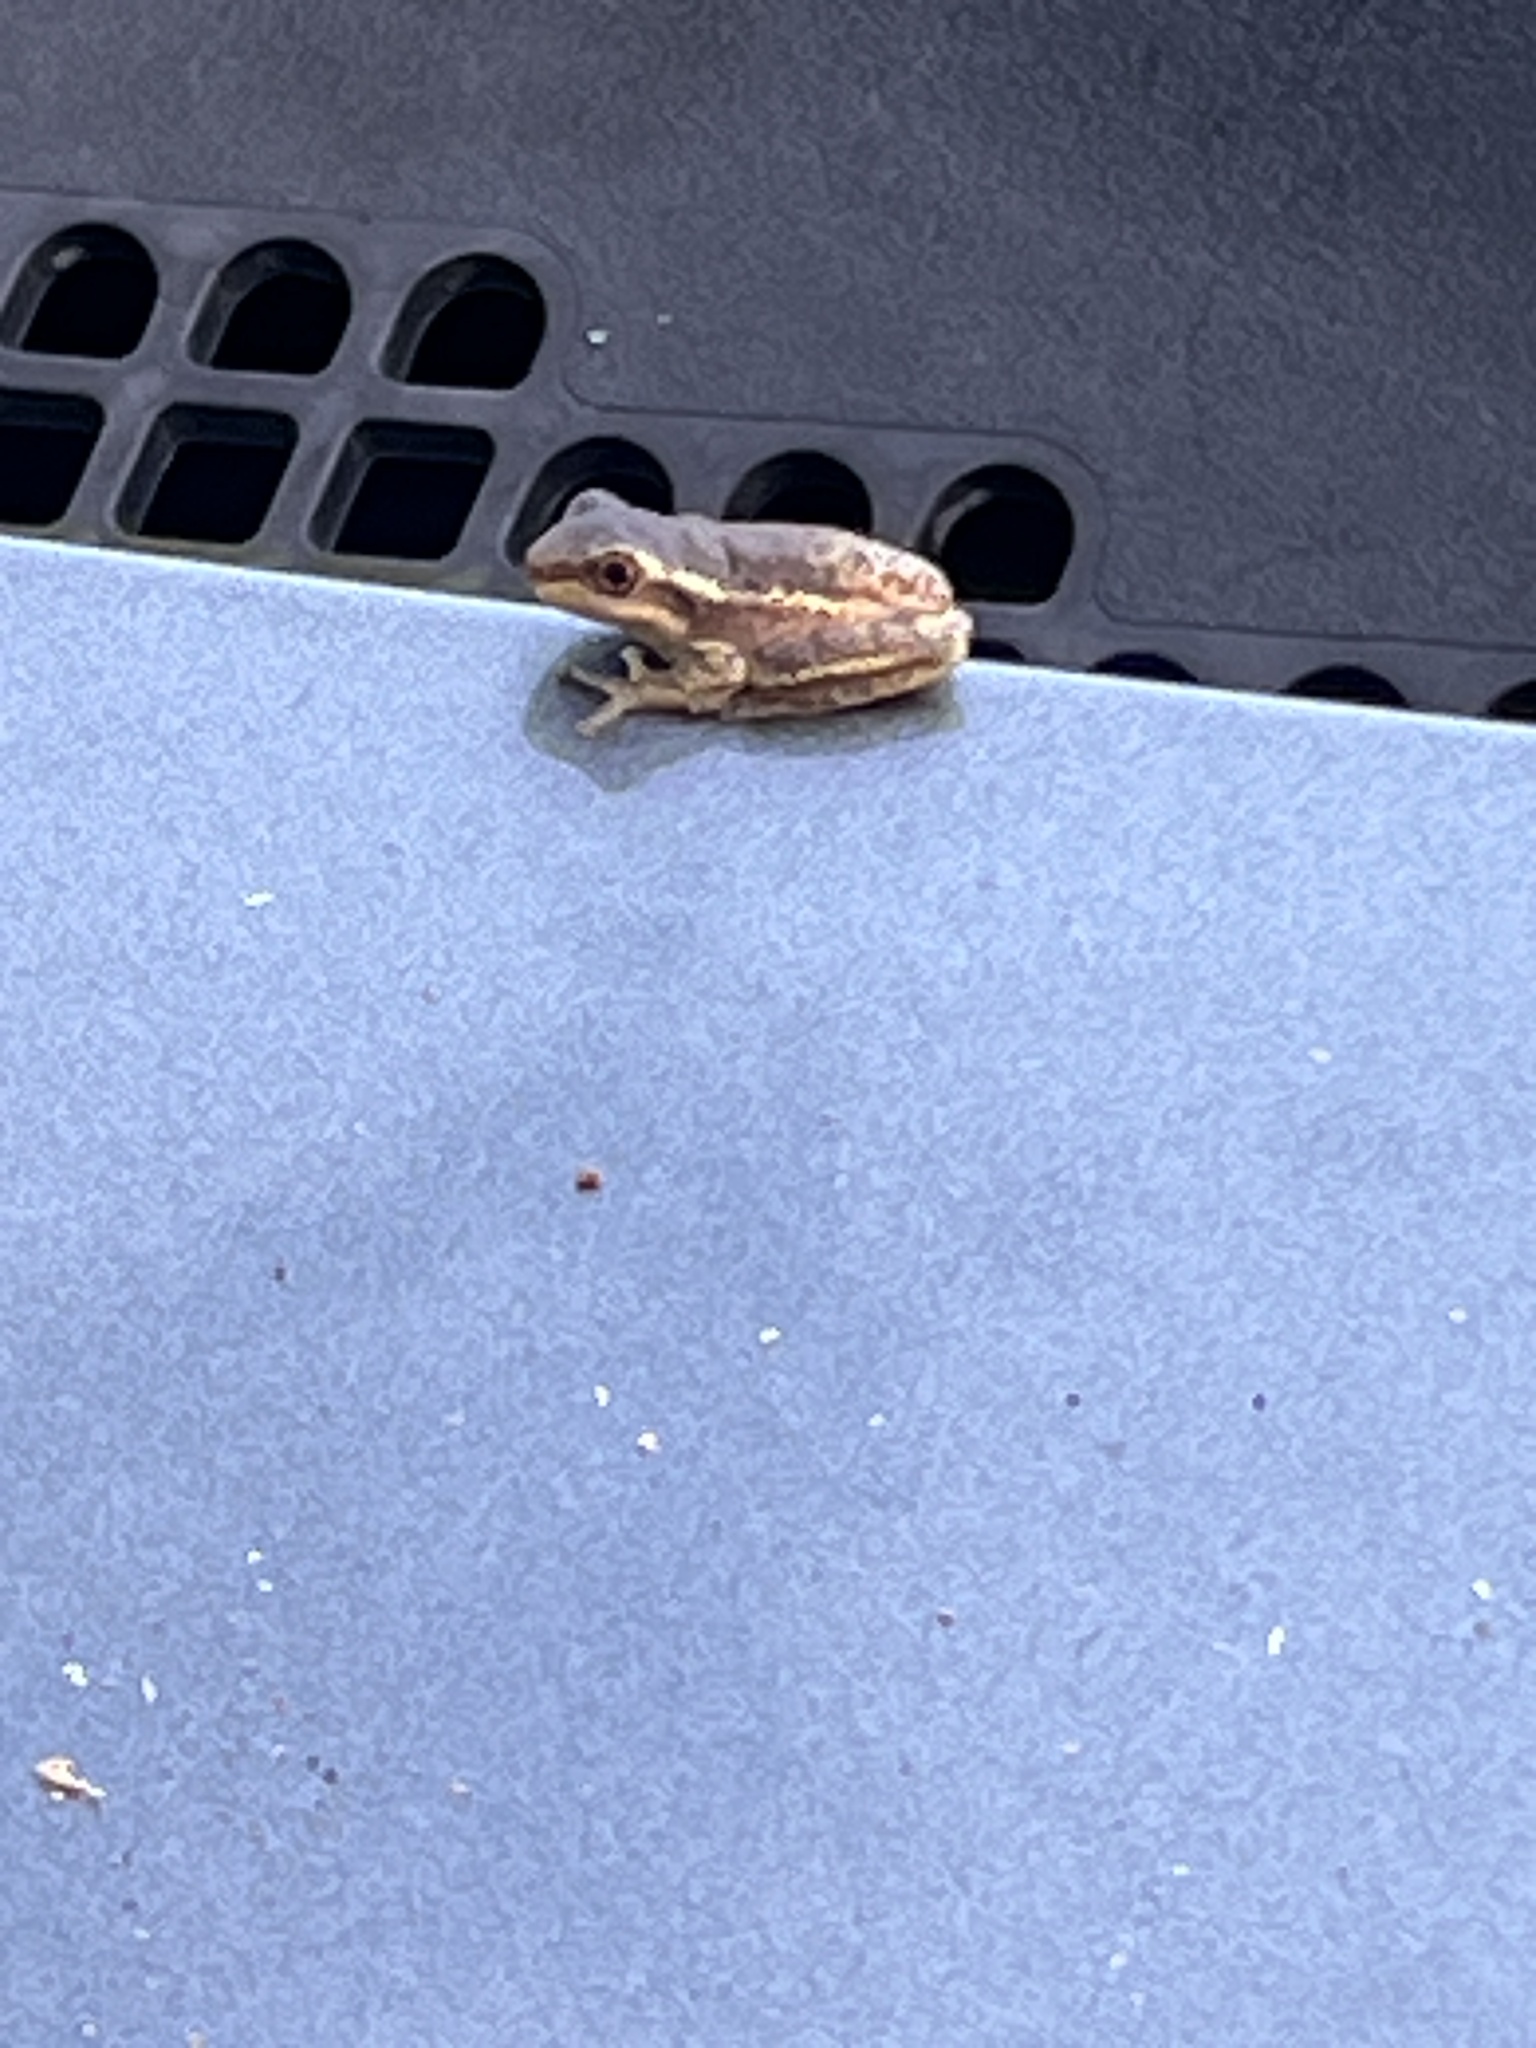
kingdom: Animalia
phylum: Chordata
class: Amphibia
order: Anura
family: Hylidae
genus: Osteopilus
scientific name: Osteopilus septentrionalis
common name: Cuban treefrog
